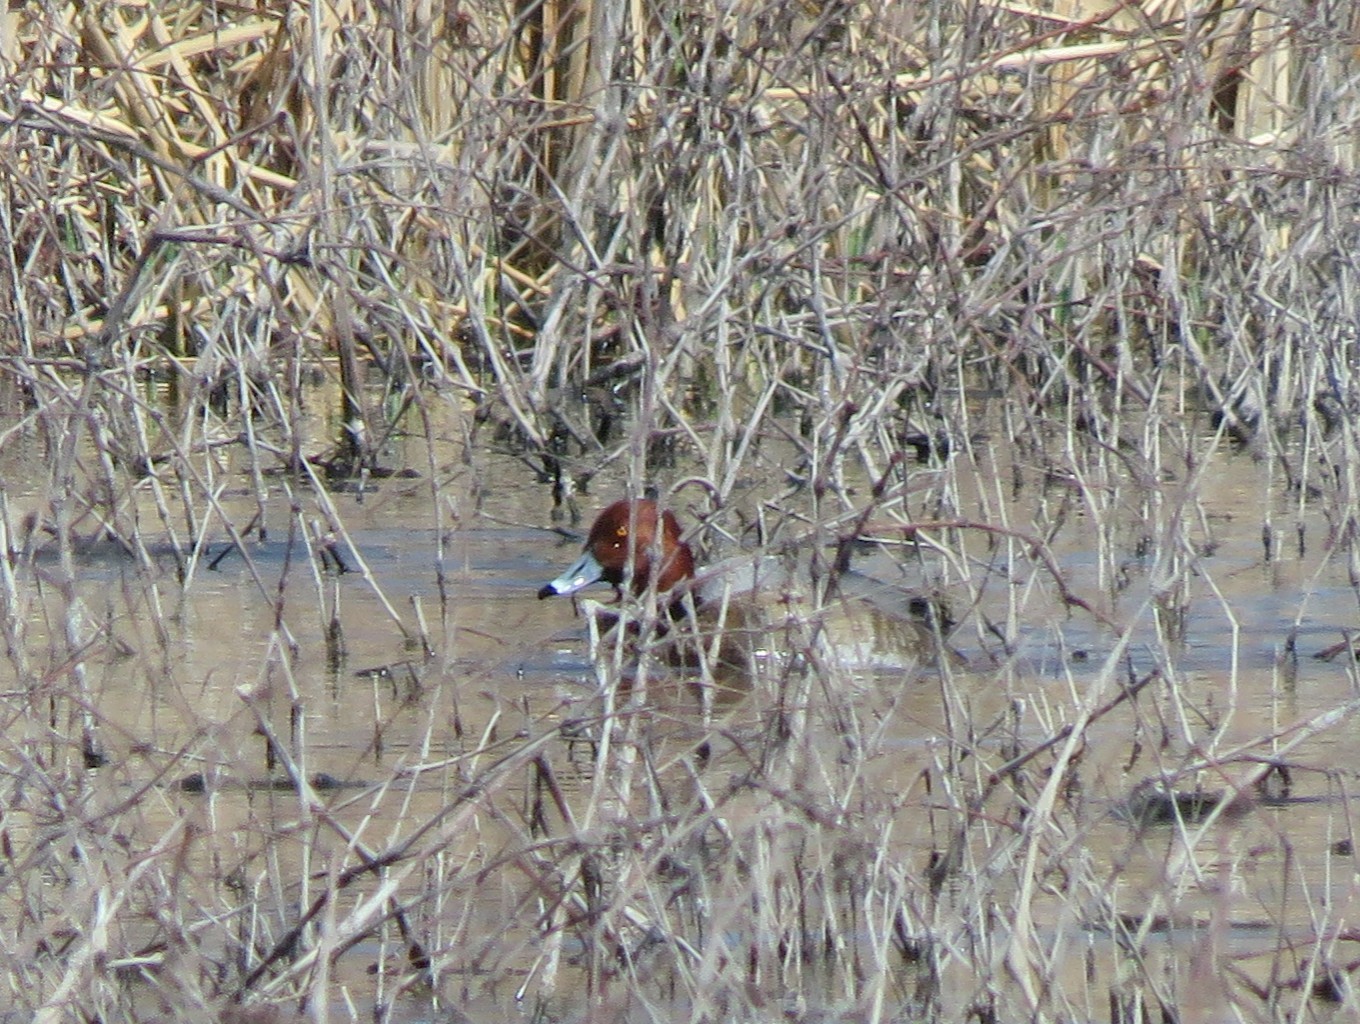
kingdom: Animalia
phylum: Chordata
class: Aves
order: Anseriformes
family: Anatidae
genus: Aythya
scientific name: Aythya americana
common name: Redhead
